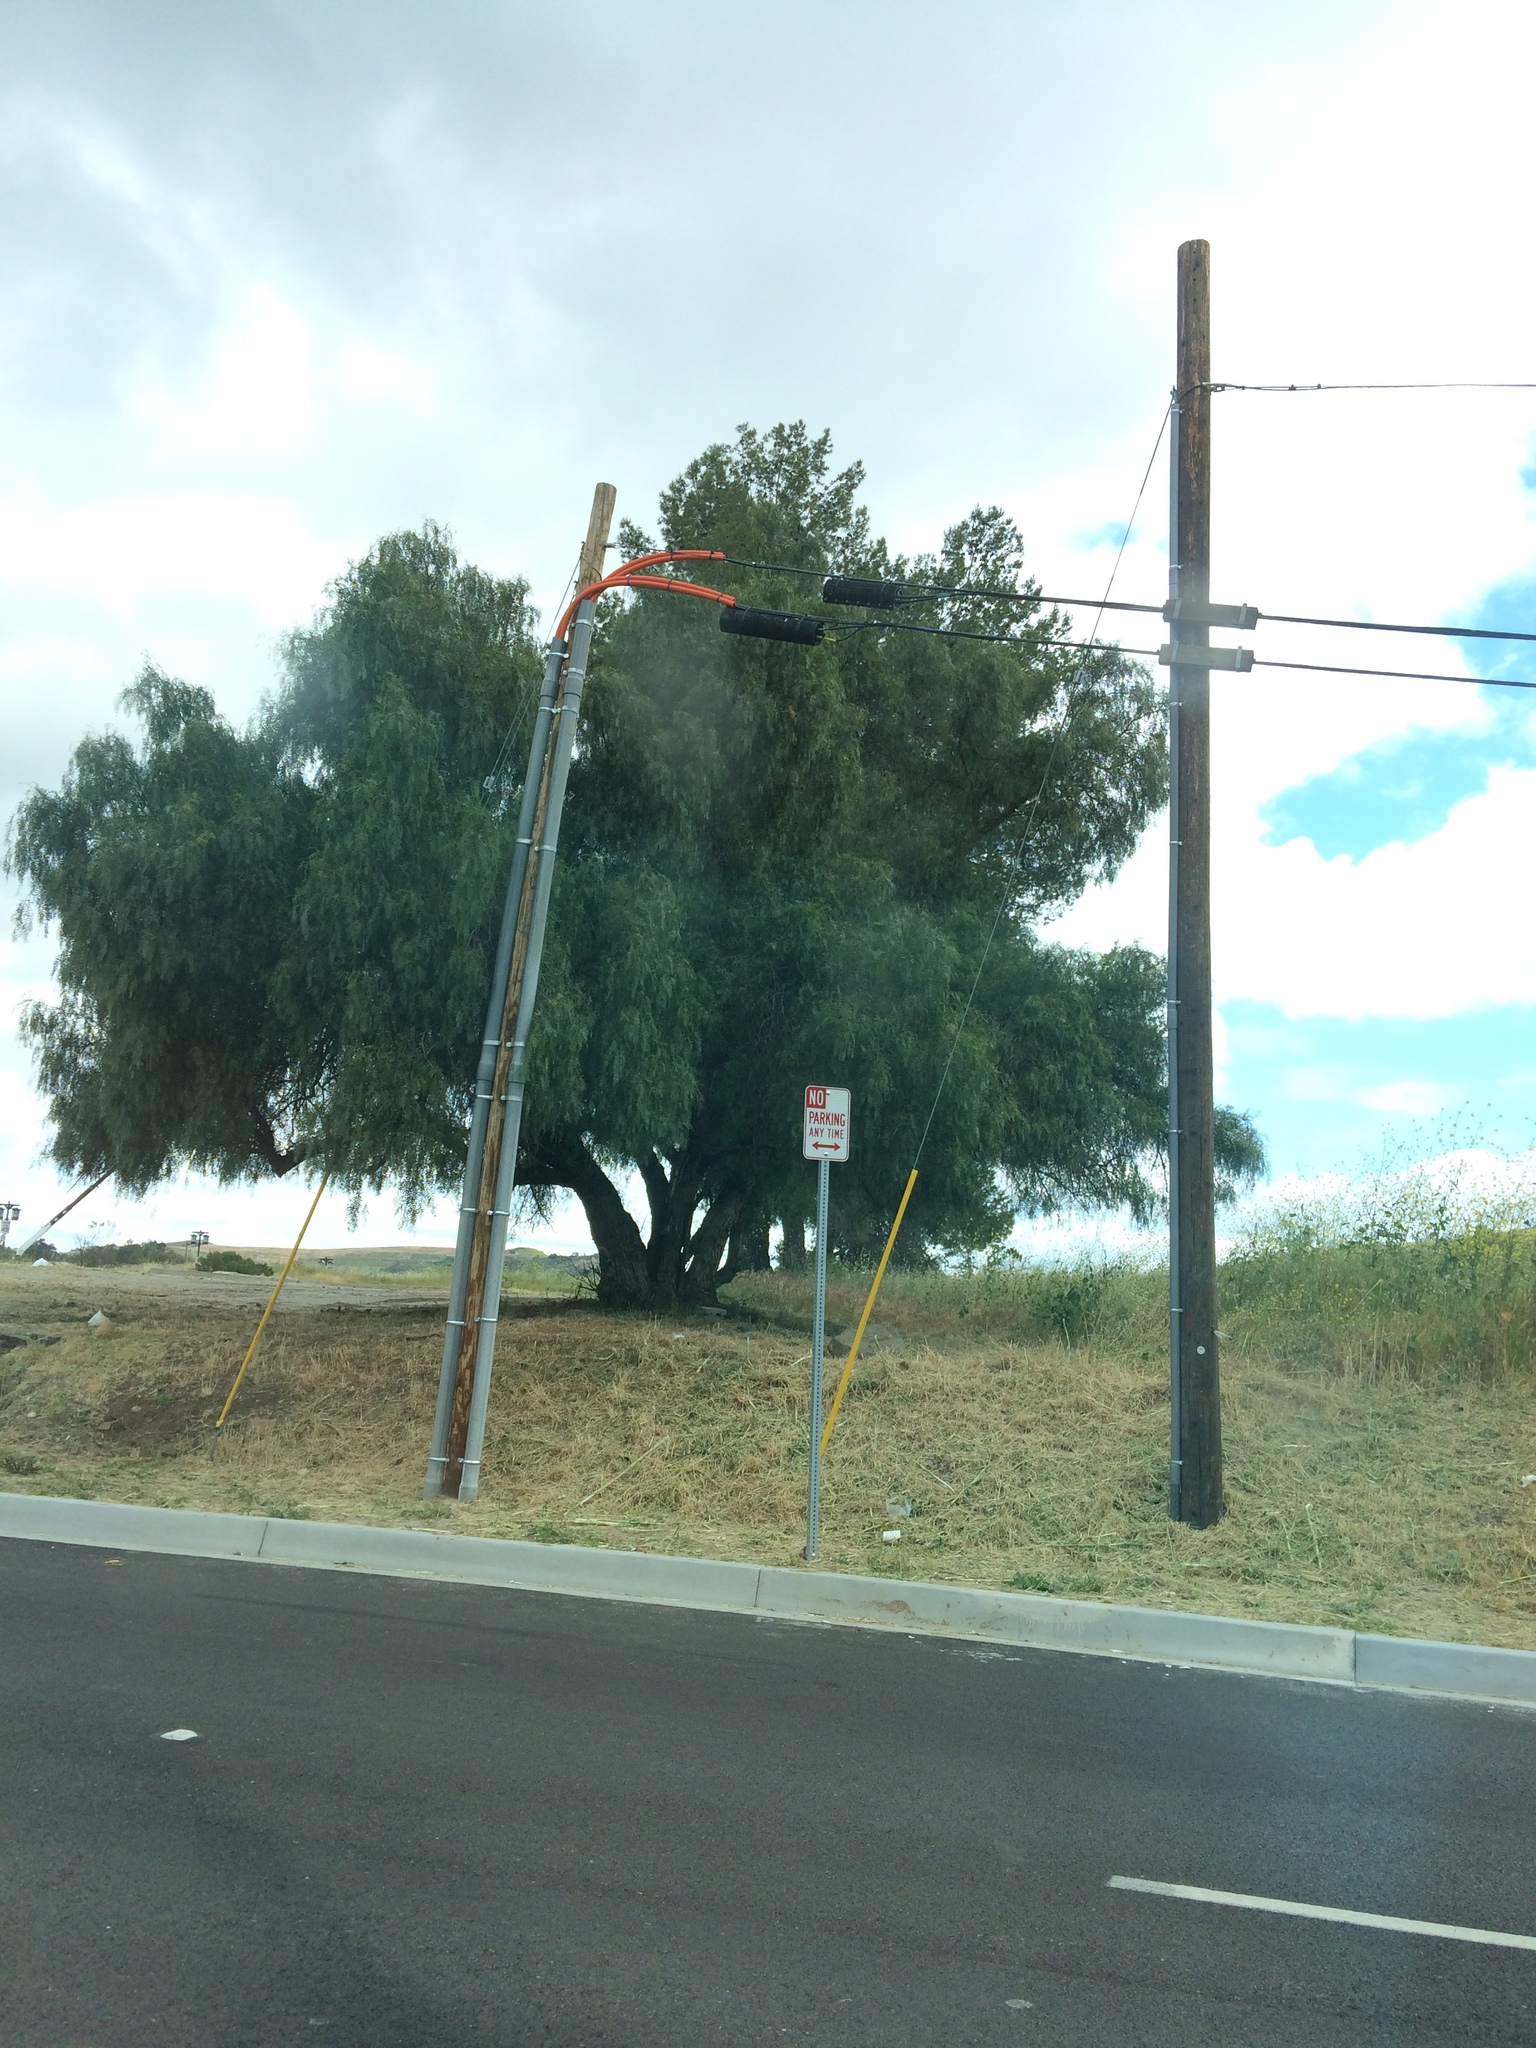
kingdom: Plantae
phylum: Tracheophyta
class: Magnoliopsida
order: Sapindales
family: Anacardiaceae
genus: Schinus
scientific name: Schinus molle
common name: Peruvian peppertree
